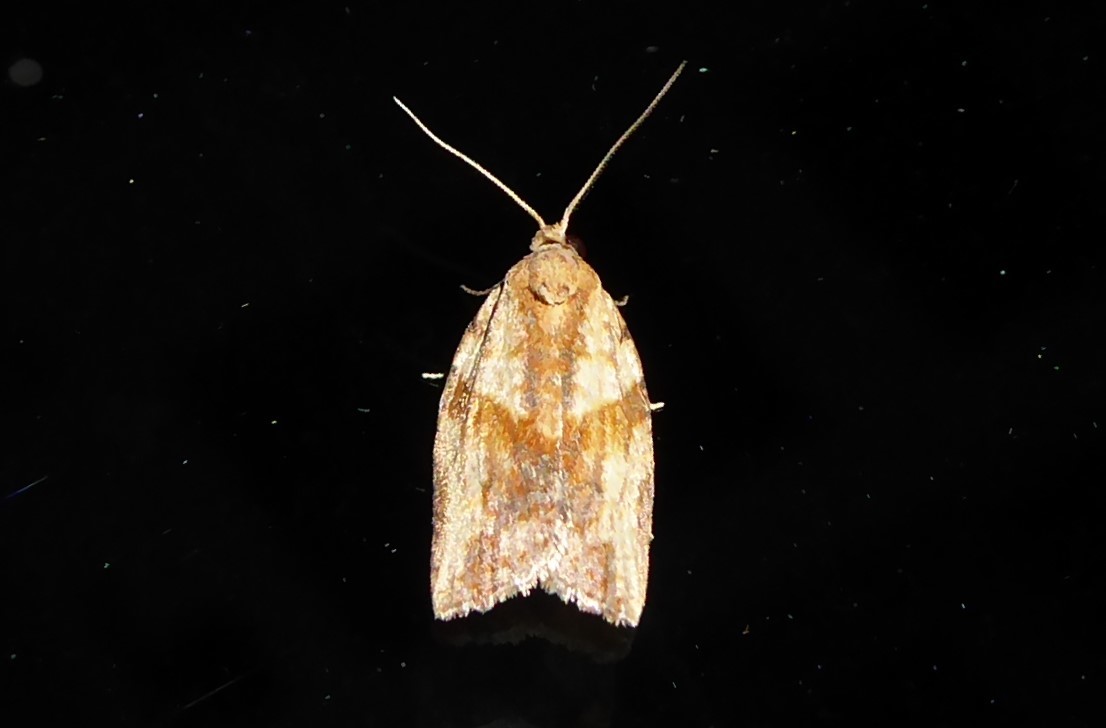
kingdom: Animalia
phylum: Arthropoda
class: Insecta
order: Lepidoptera
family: Tortricidae
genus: Epiphyas
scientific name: Epiphyas postvittana
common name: Light brown apple moth
